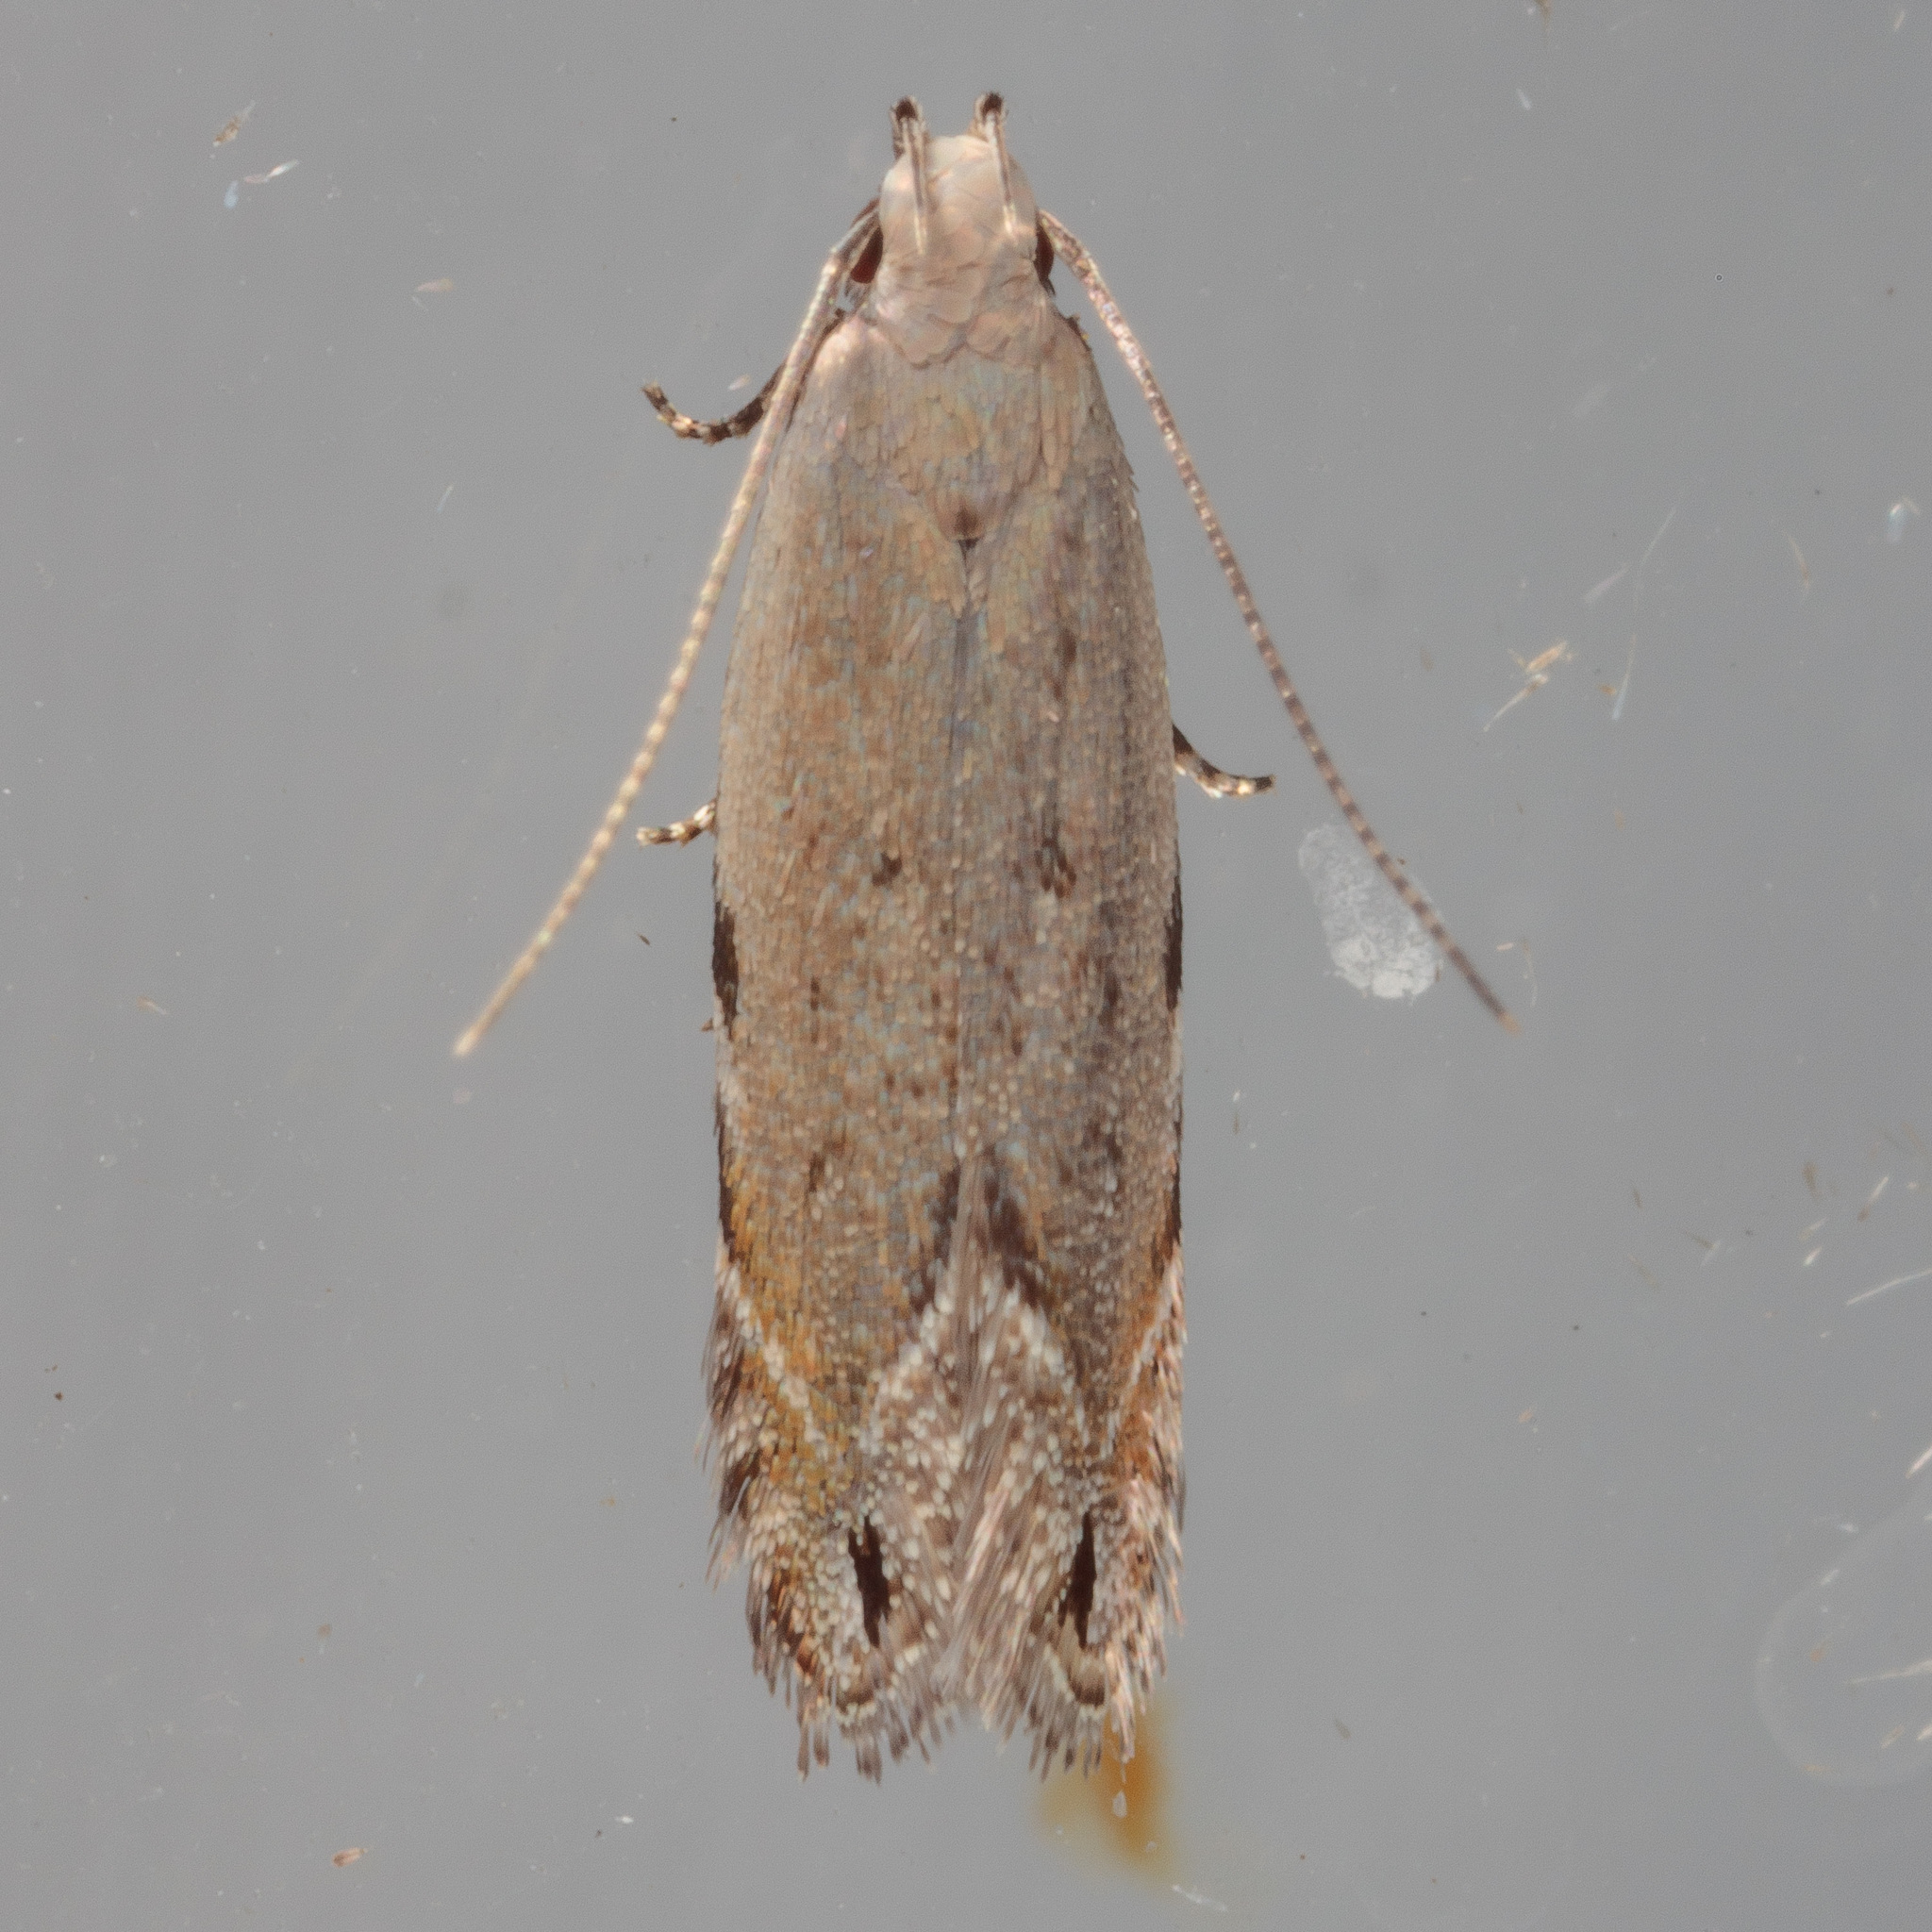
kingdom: Animalia
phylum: Arthropoda
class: Insecta
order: Lepidoptera
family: Gelechiidae
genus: Battaristis
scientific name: Battaristis concinnusella
